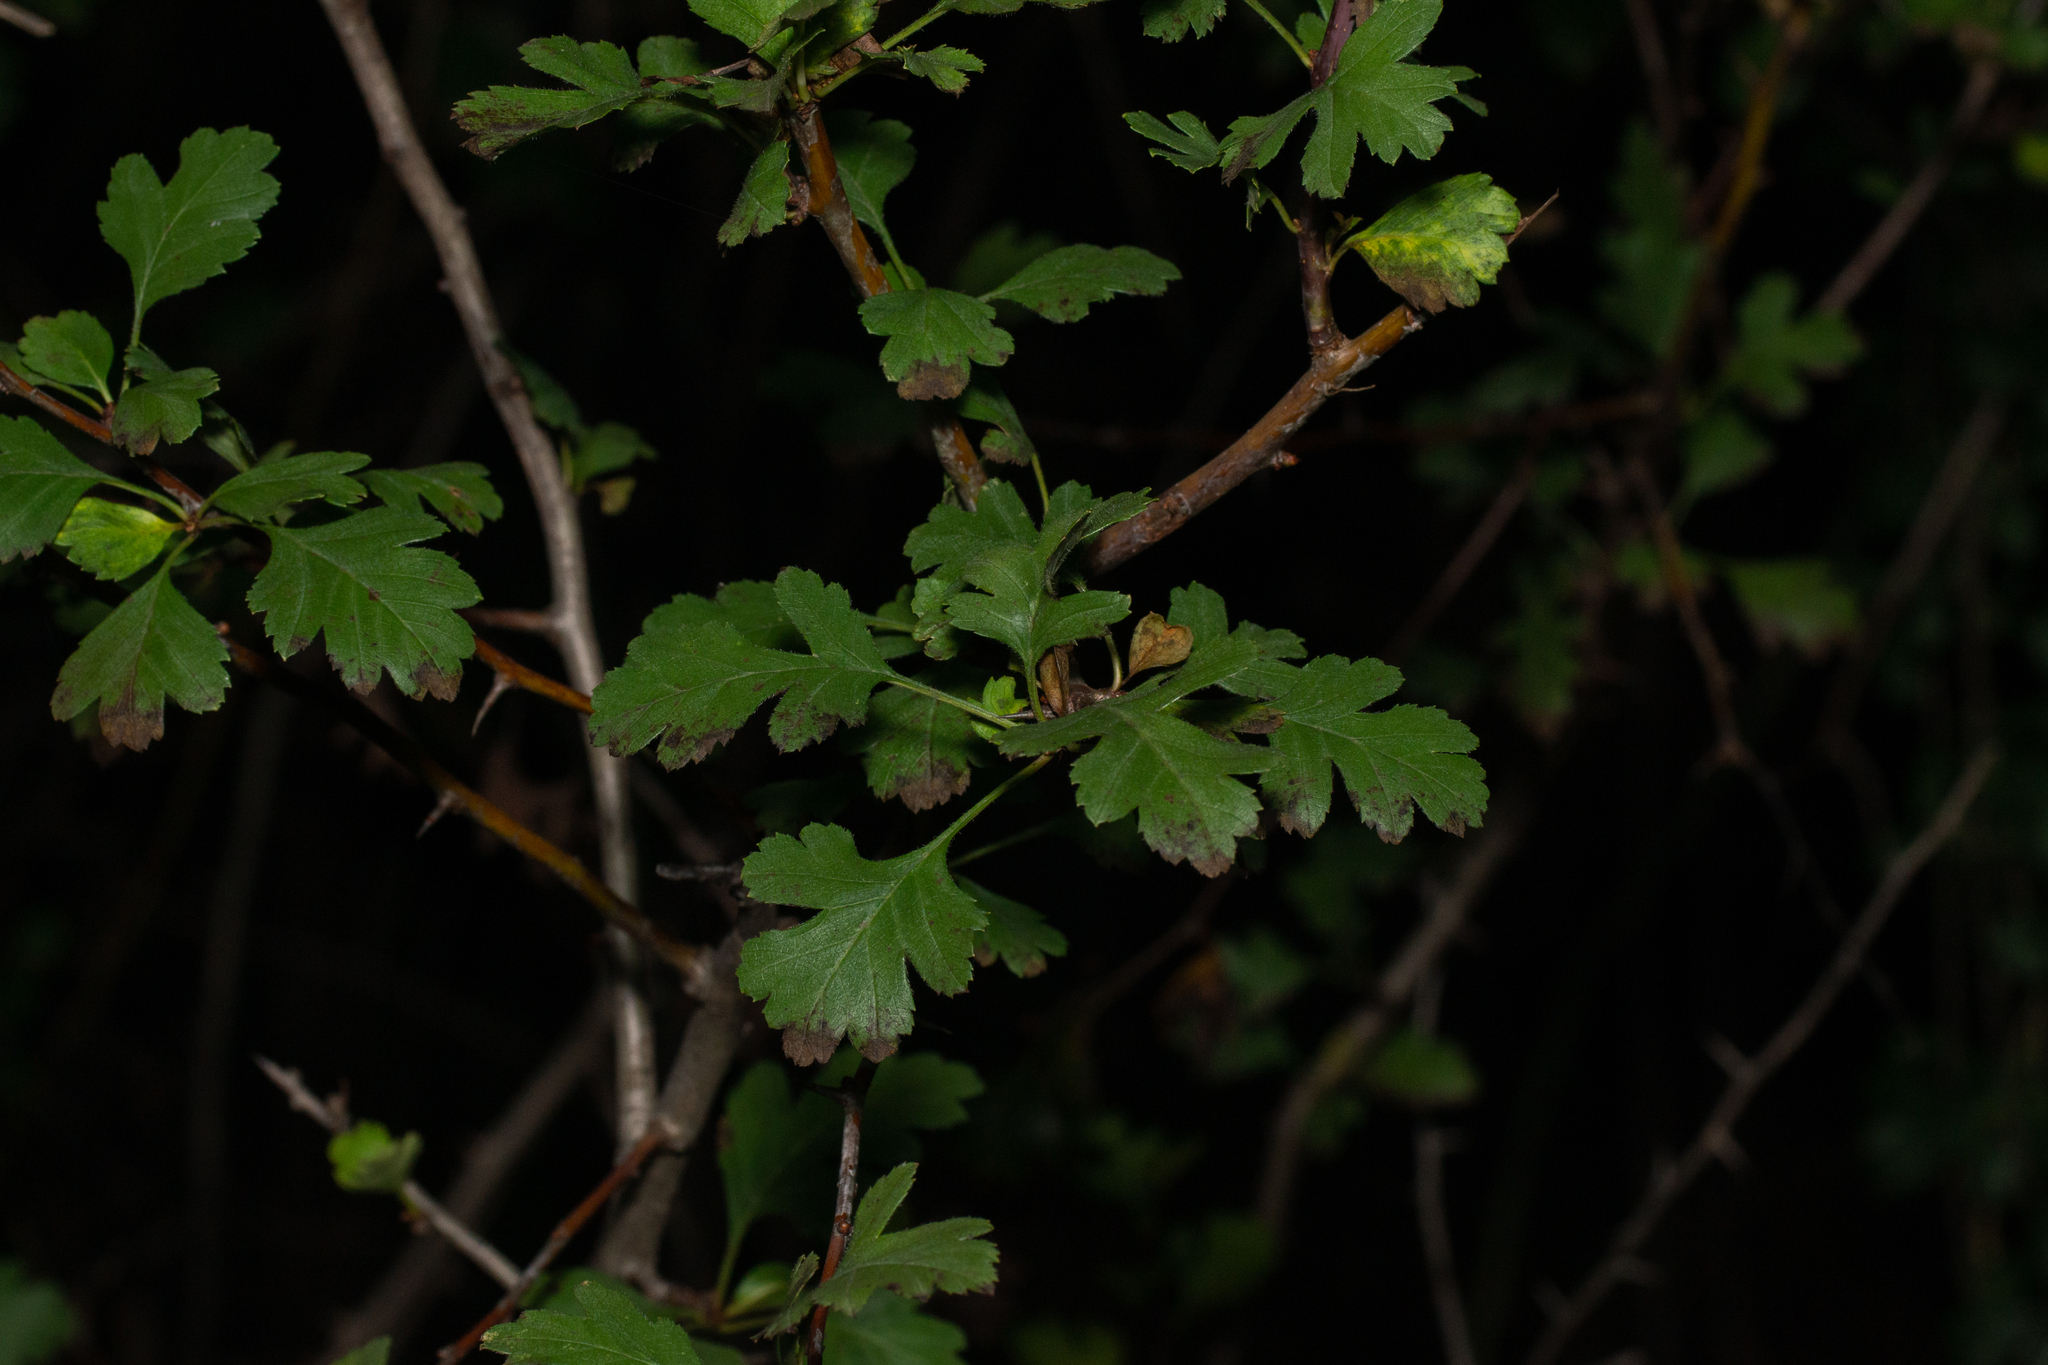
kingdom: Plantae
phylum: Tracheophyta
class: Magnoliopsida
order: Rosales
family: Rosaceae
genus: Crataegus
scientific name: Crataegus monogyna
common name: Hawthorn
